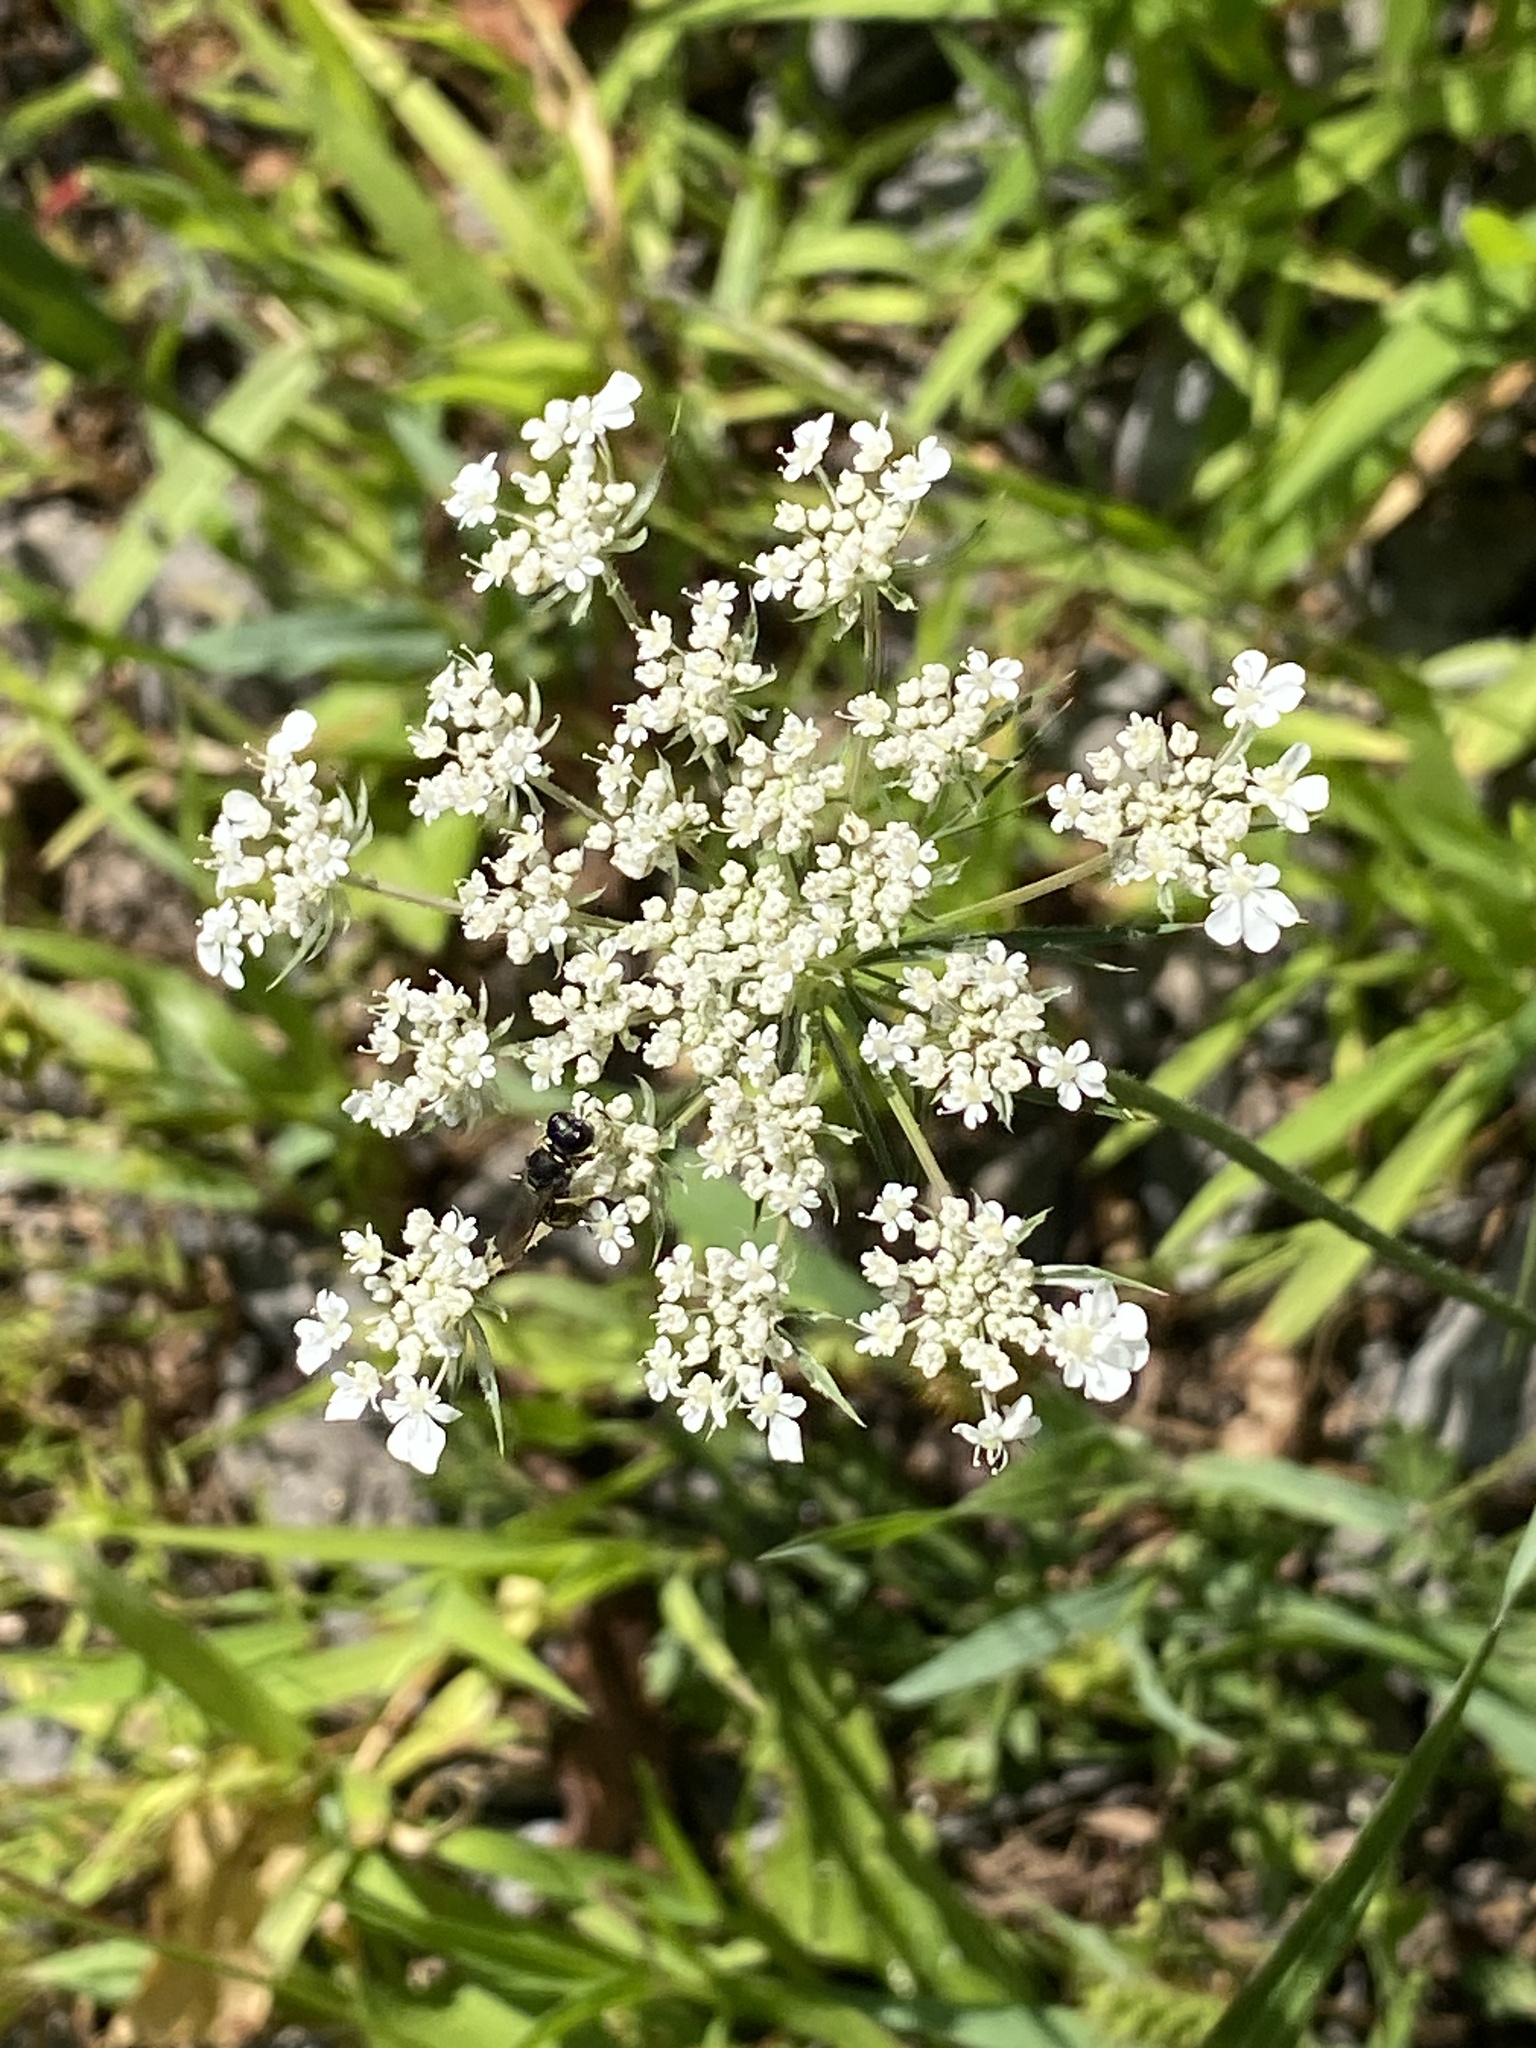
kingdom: Plantae
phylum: Tracheophyta
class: Magnoliopsida
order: Apiales
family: Apiaceae
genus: Daucus
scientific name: Daucus carota
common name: Wild carrot
